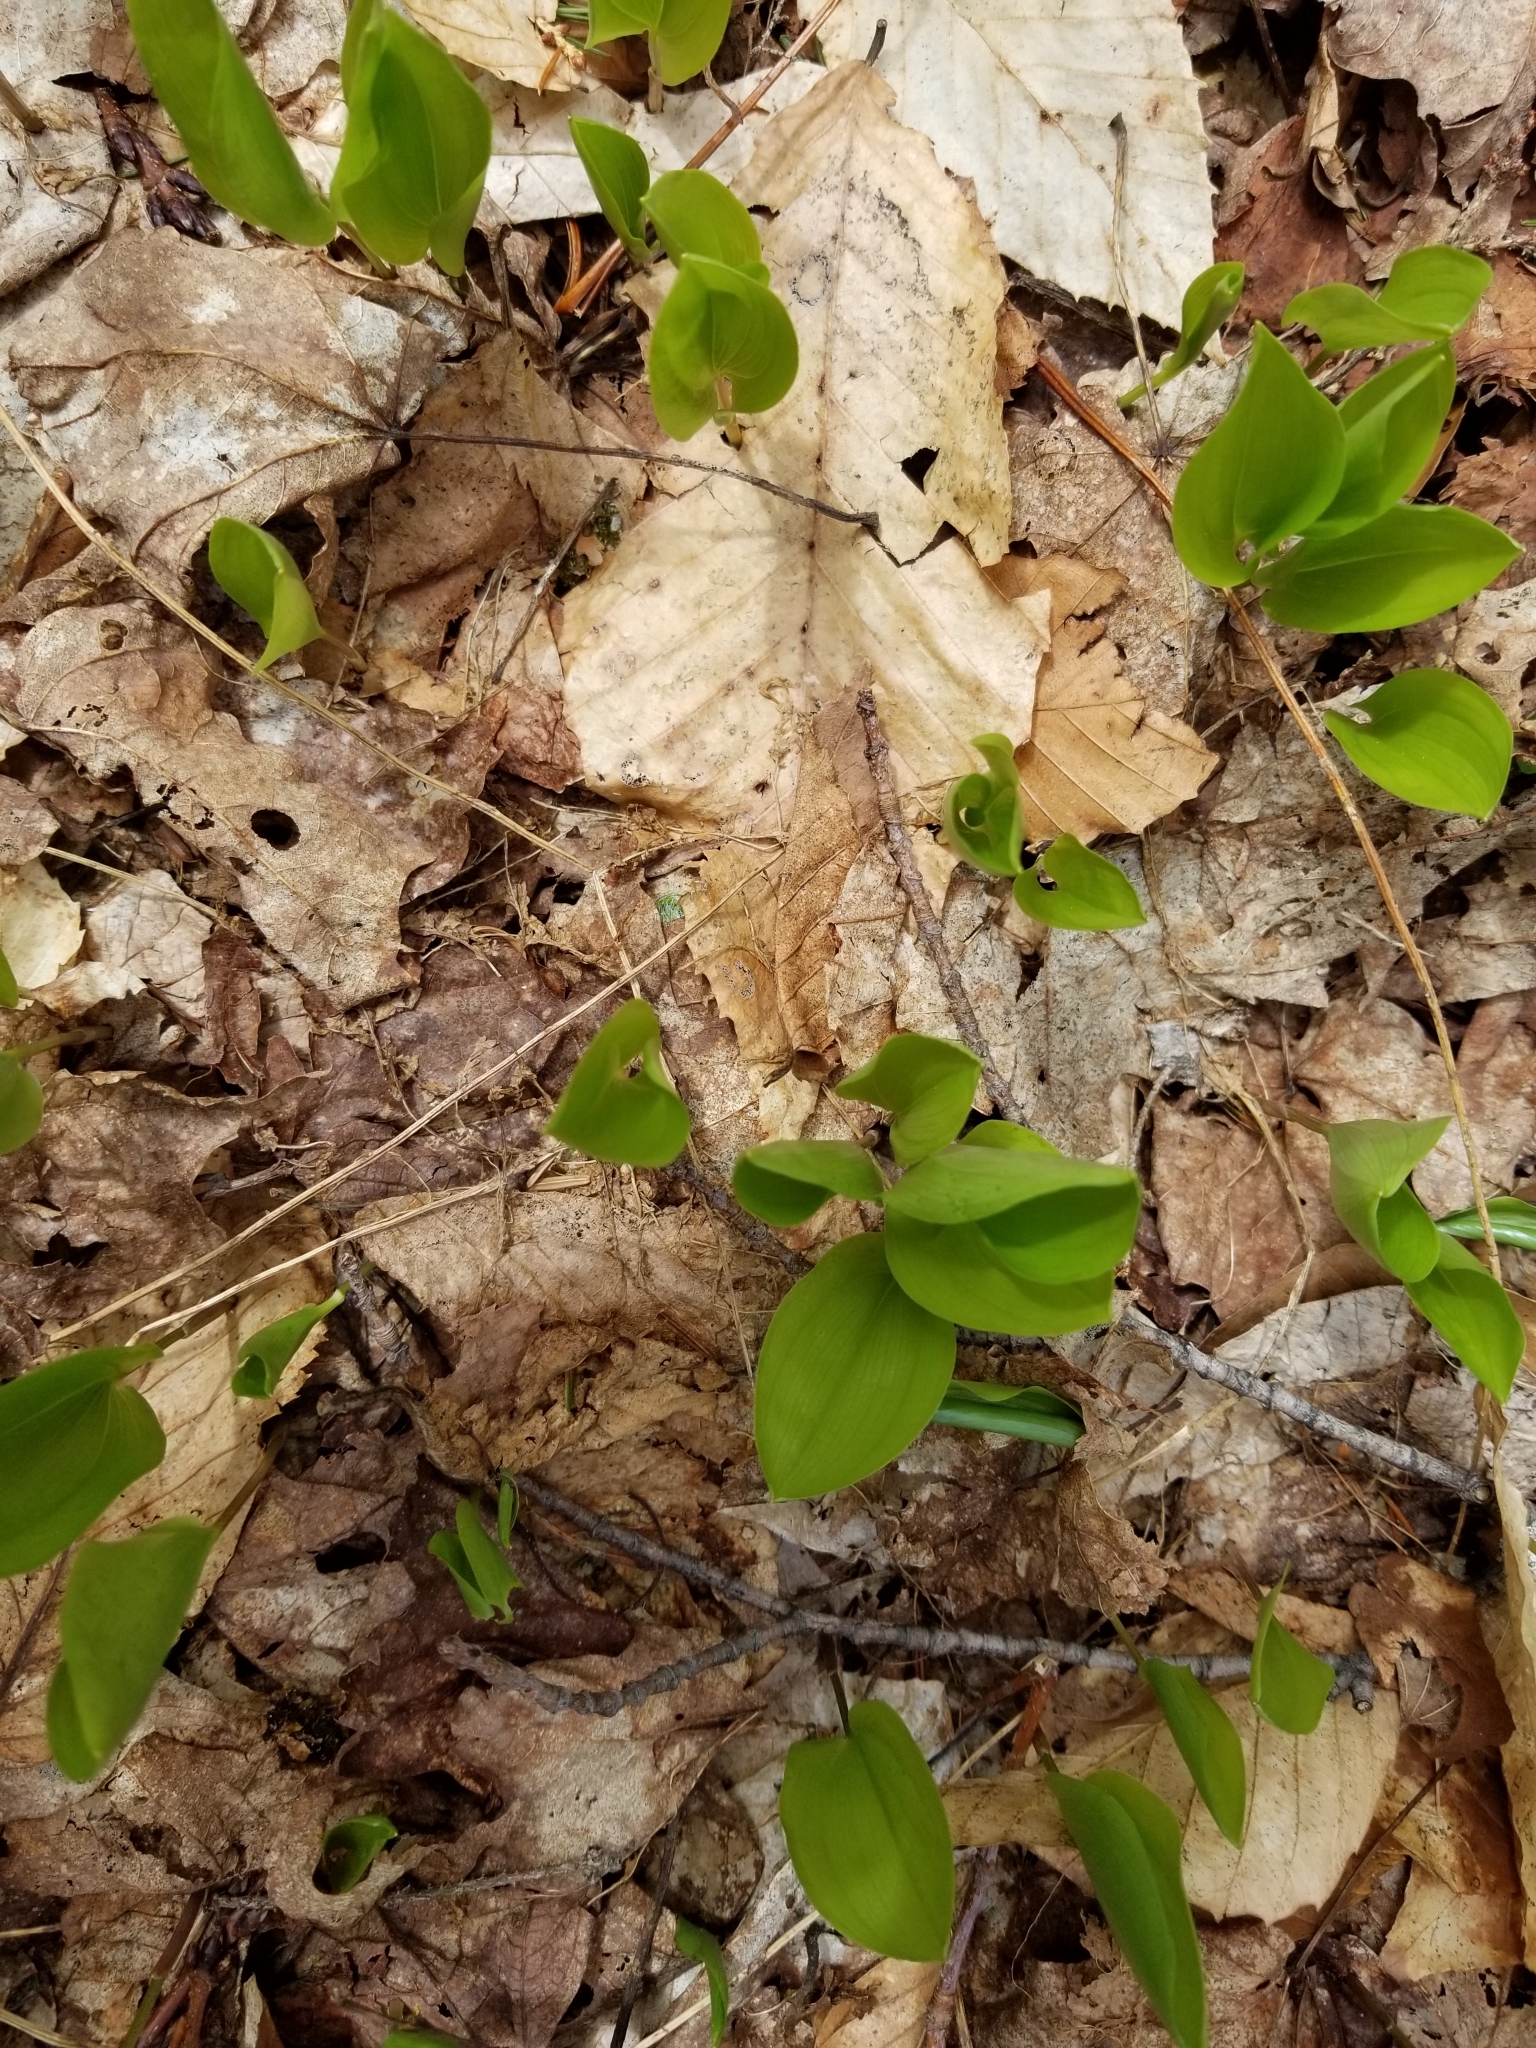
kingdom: Plantae
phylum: Tracheophyta
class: Liliopsida
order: Asparagales
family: Asparagaceae
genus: Maianthemum
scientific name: Maianthemum canadense
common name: False lily-of-the-valley
